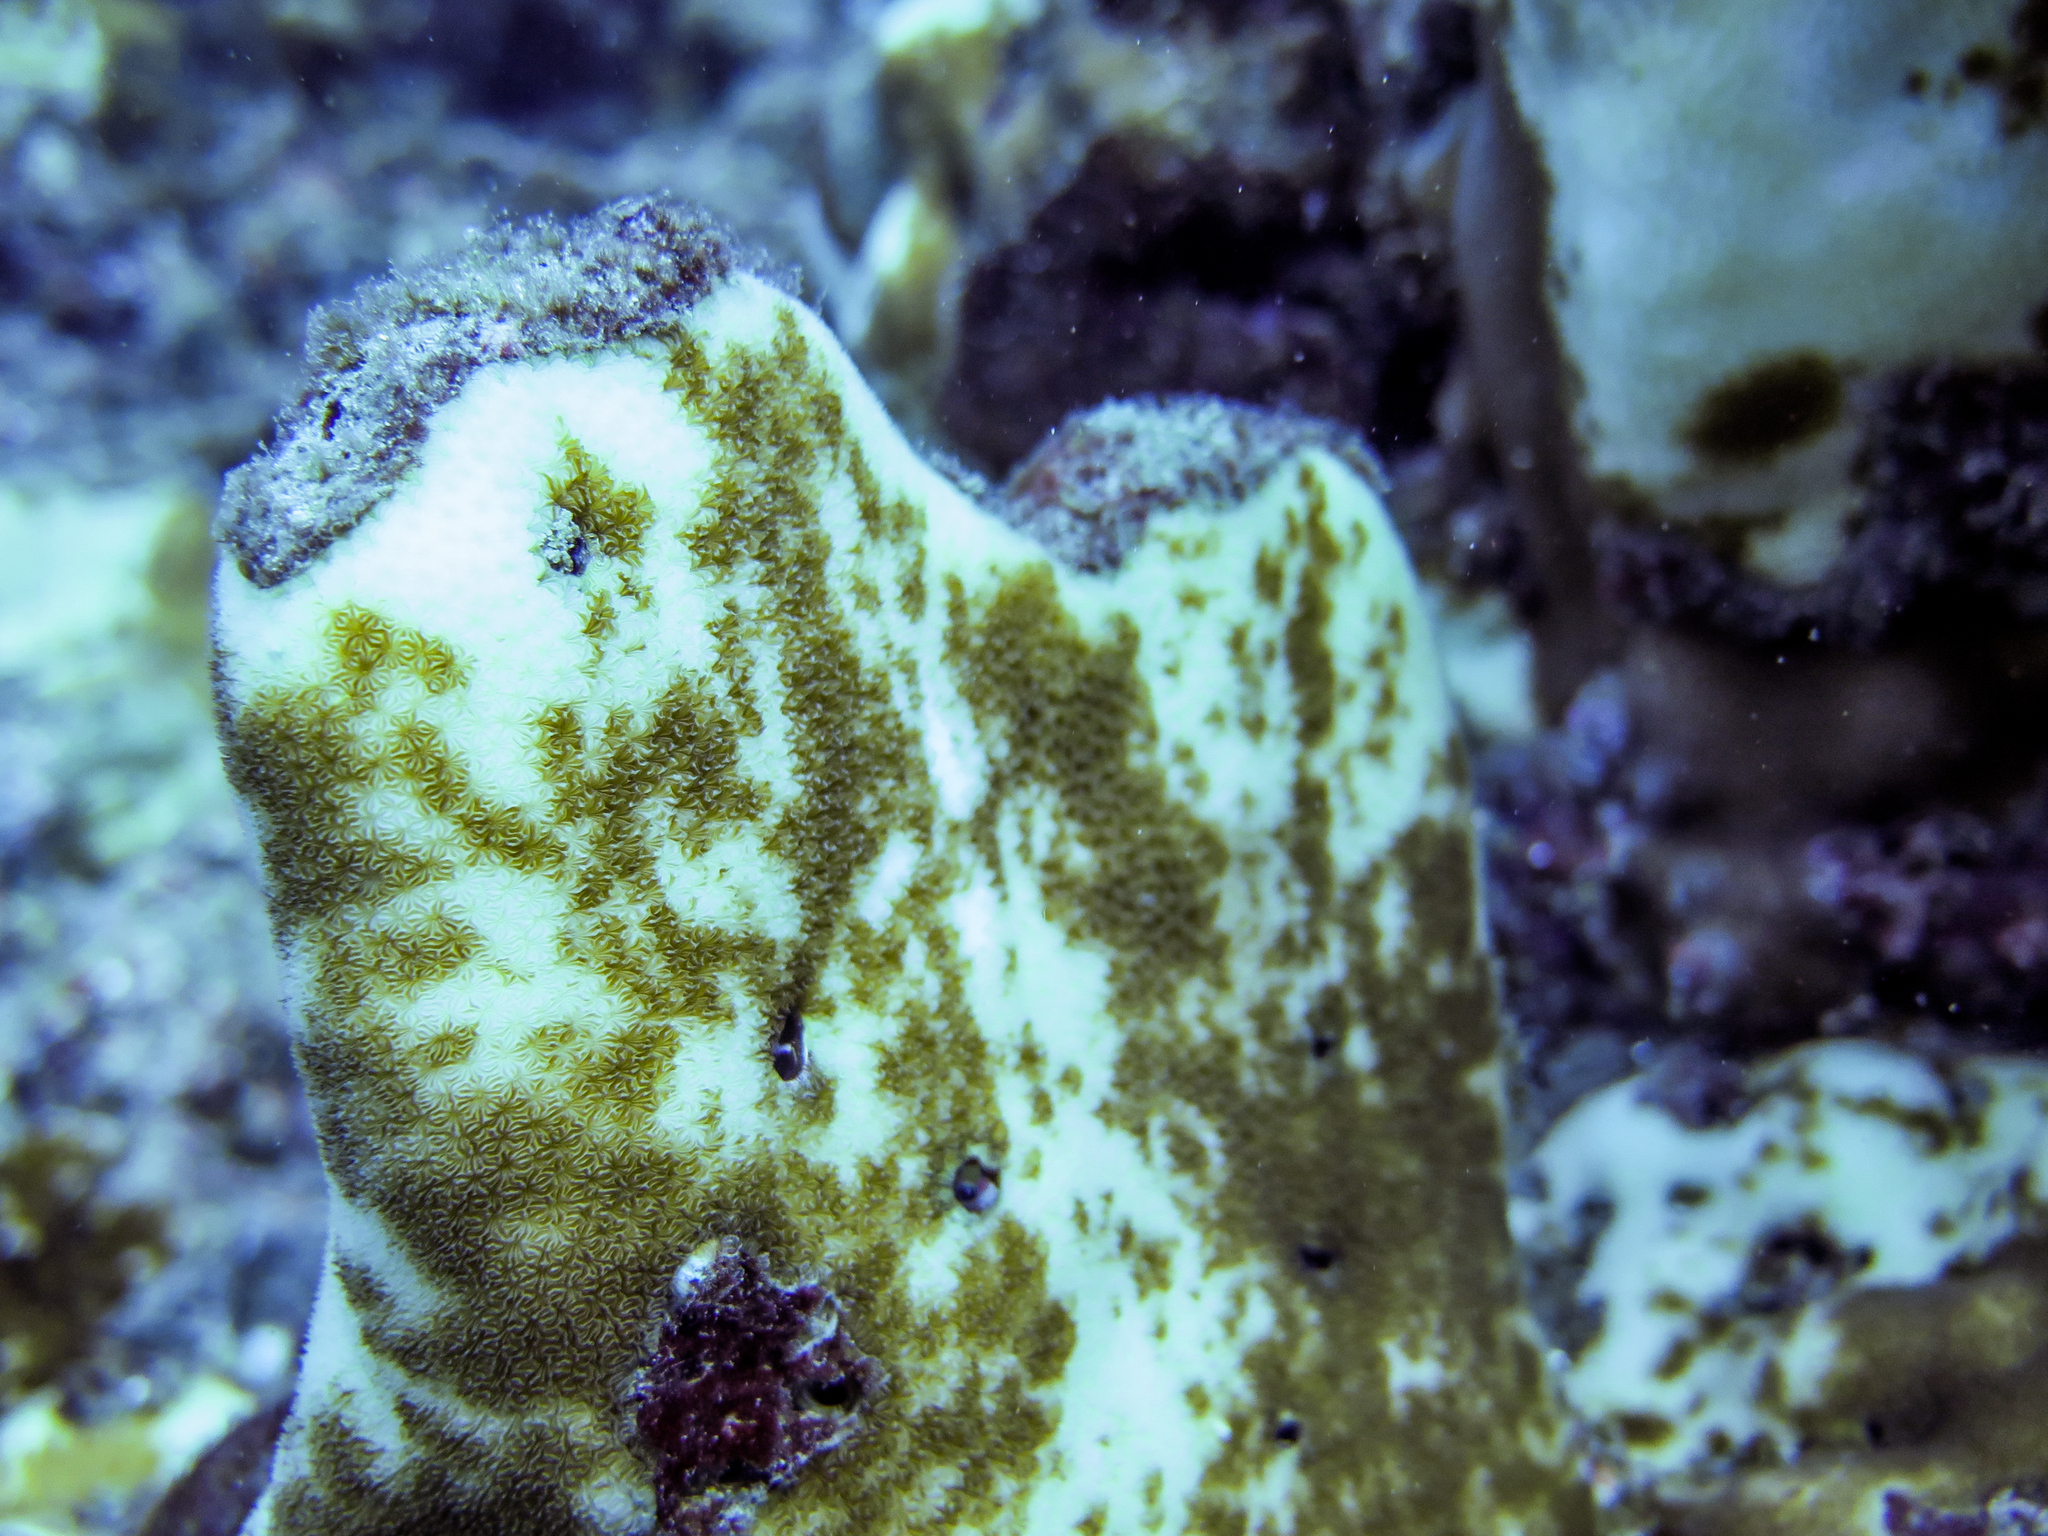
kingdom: Animalia
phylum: Cnidaria
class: Anthozoa
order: Scleractinia
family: Agariciidae
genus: Pavona
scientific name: Pavona duerdeni
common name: Leaf coral
